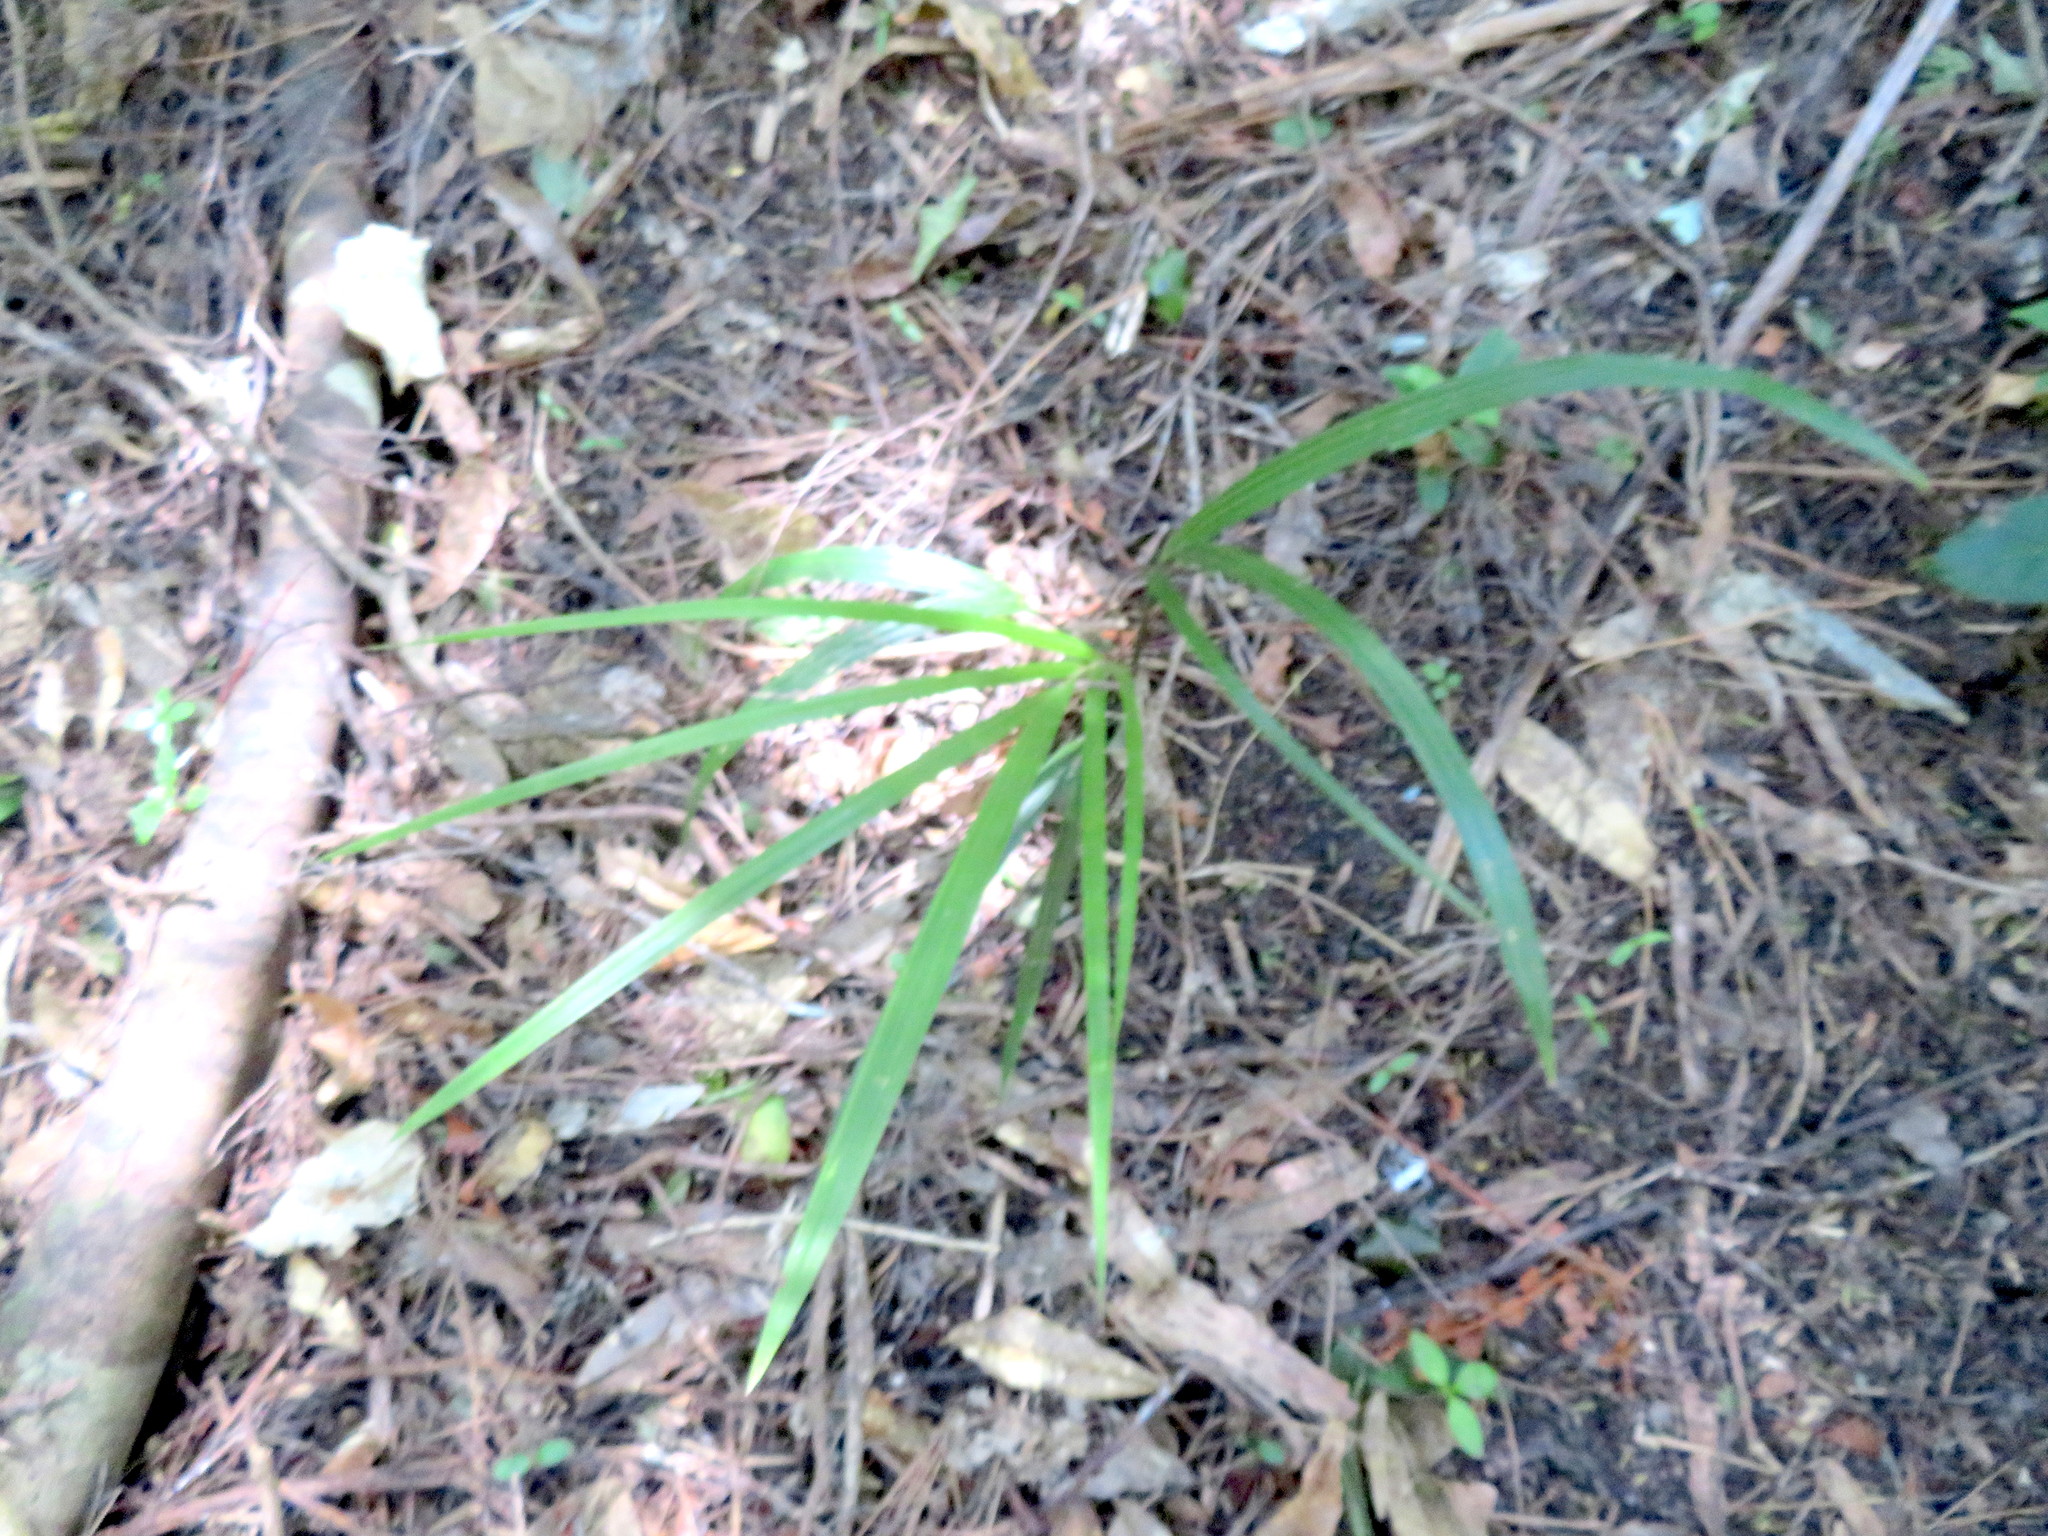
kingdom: Plantae
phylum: Tracheophyta
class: Liliopsida
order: Arecales
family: Arecaceae
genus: Rhopalostylis
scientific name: Rhopalostylis sapida
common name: Feather-duster palm
